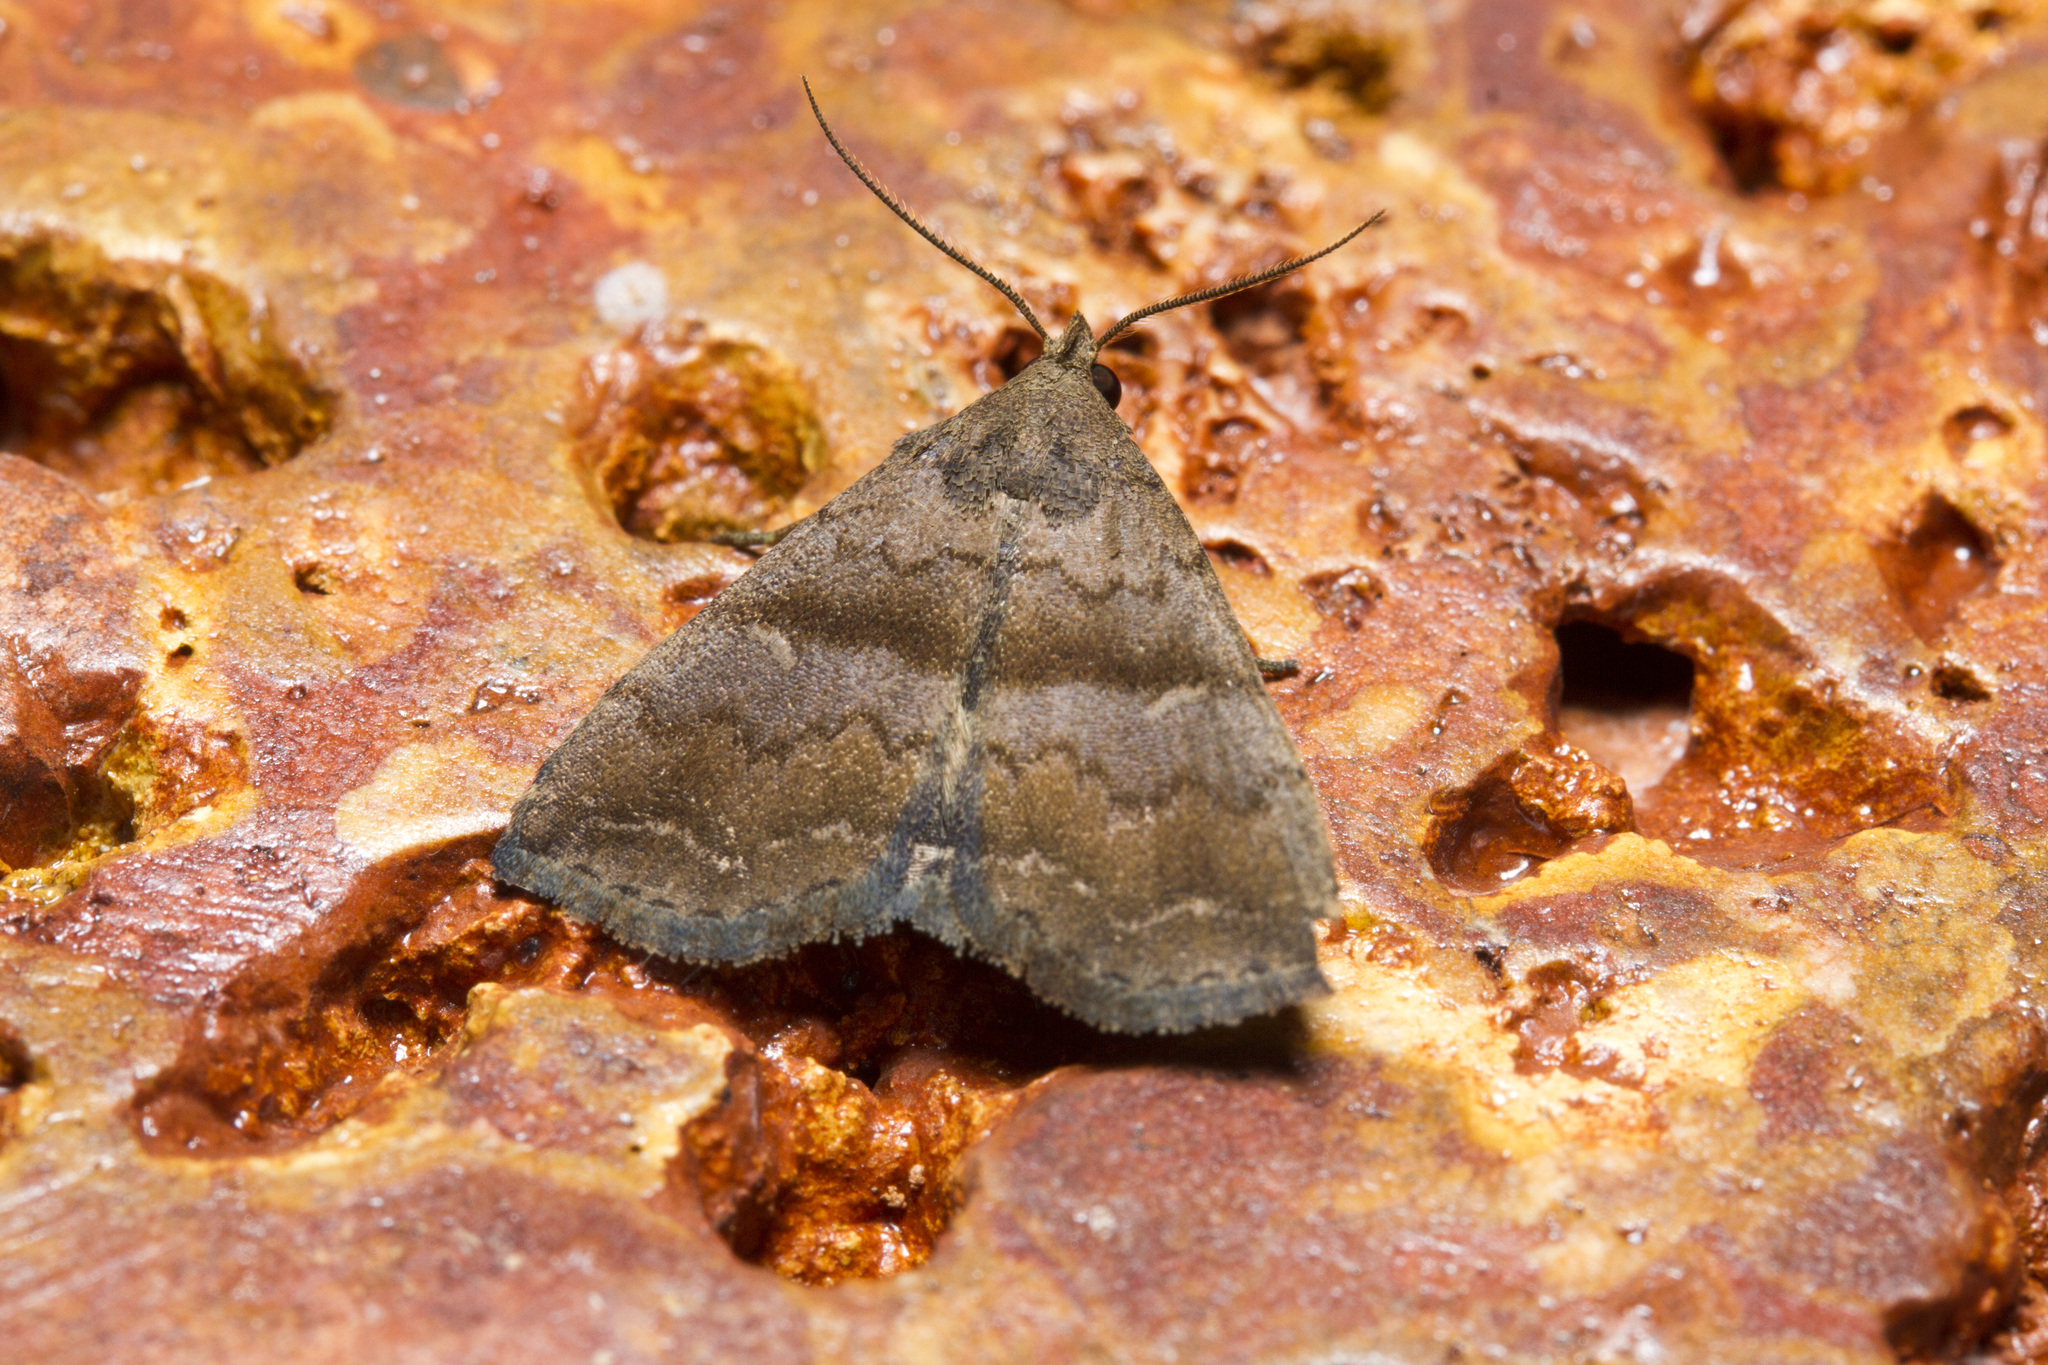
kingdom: Animalia
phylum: Arthropoda
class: Insecta
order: Lepidoptera
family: Erebidae
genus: Polypogon
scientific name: Polypogon Hipoepa fractalis
